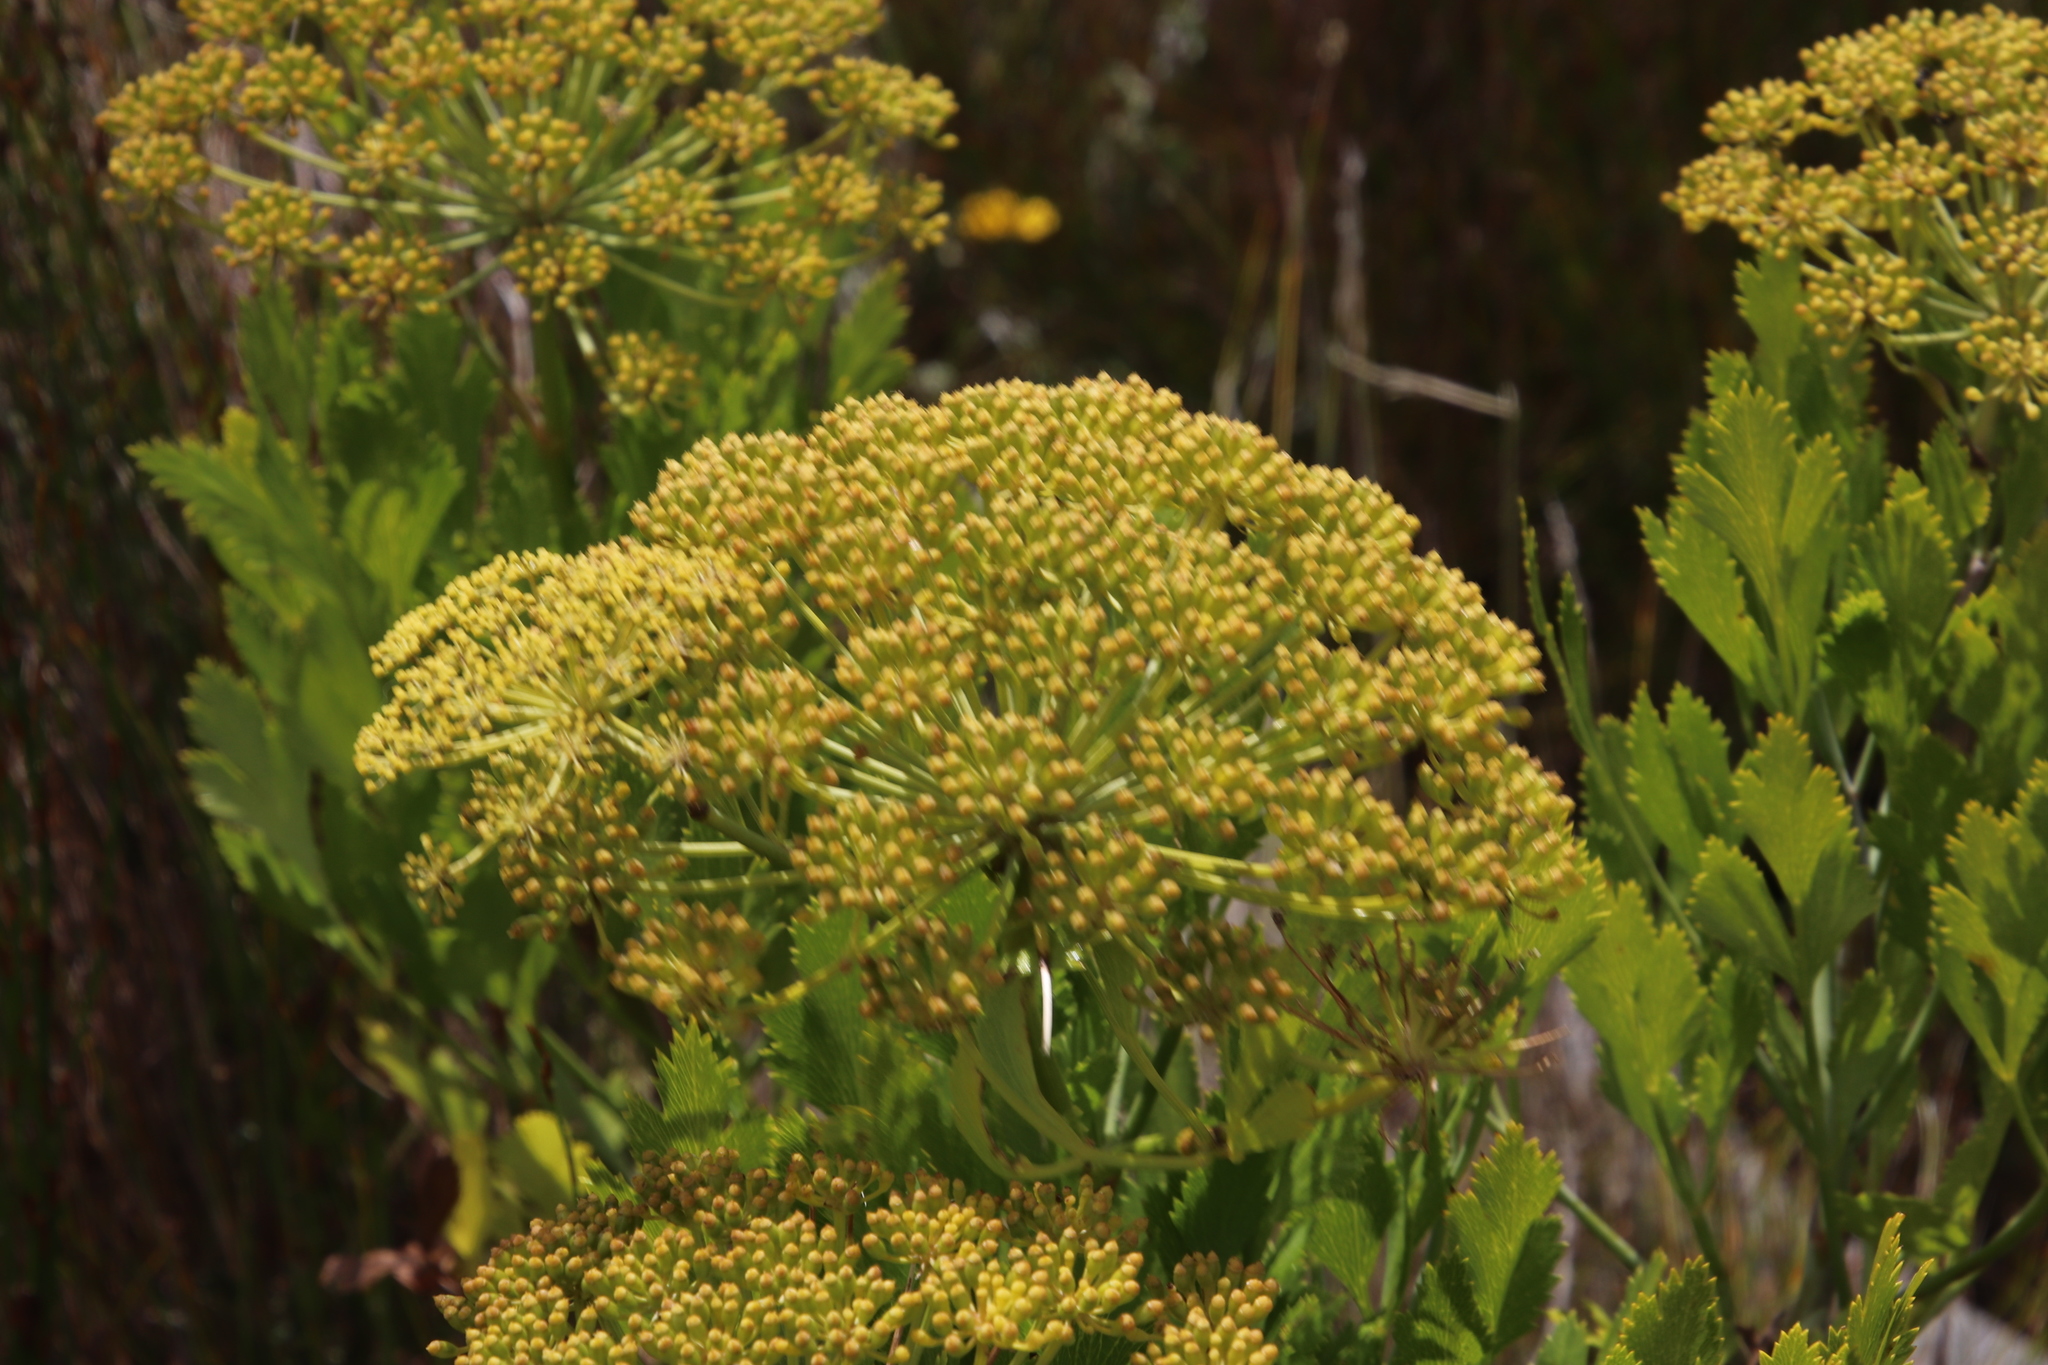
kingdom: Plantae
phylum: Tracheophyta
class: Magnoliopsida
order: Apiales
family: Apiaceae
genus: Notobubon
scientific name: Notobubon galbanum
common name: Blisterbush
